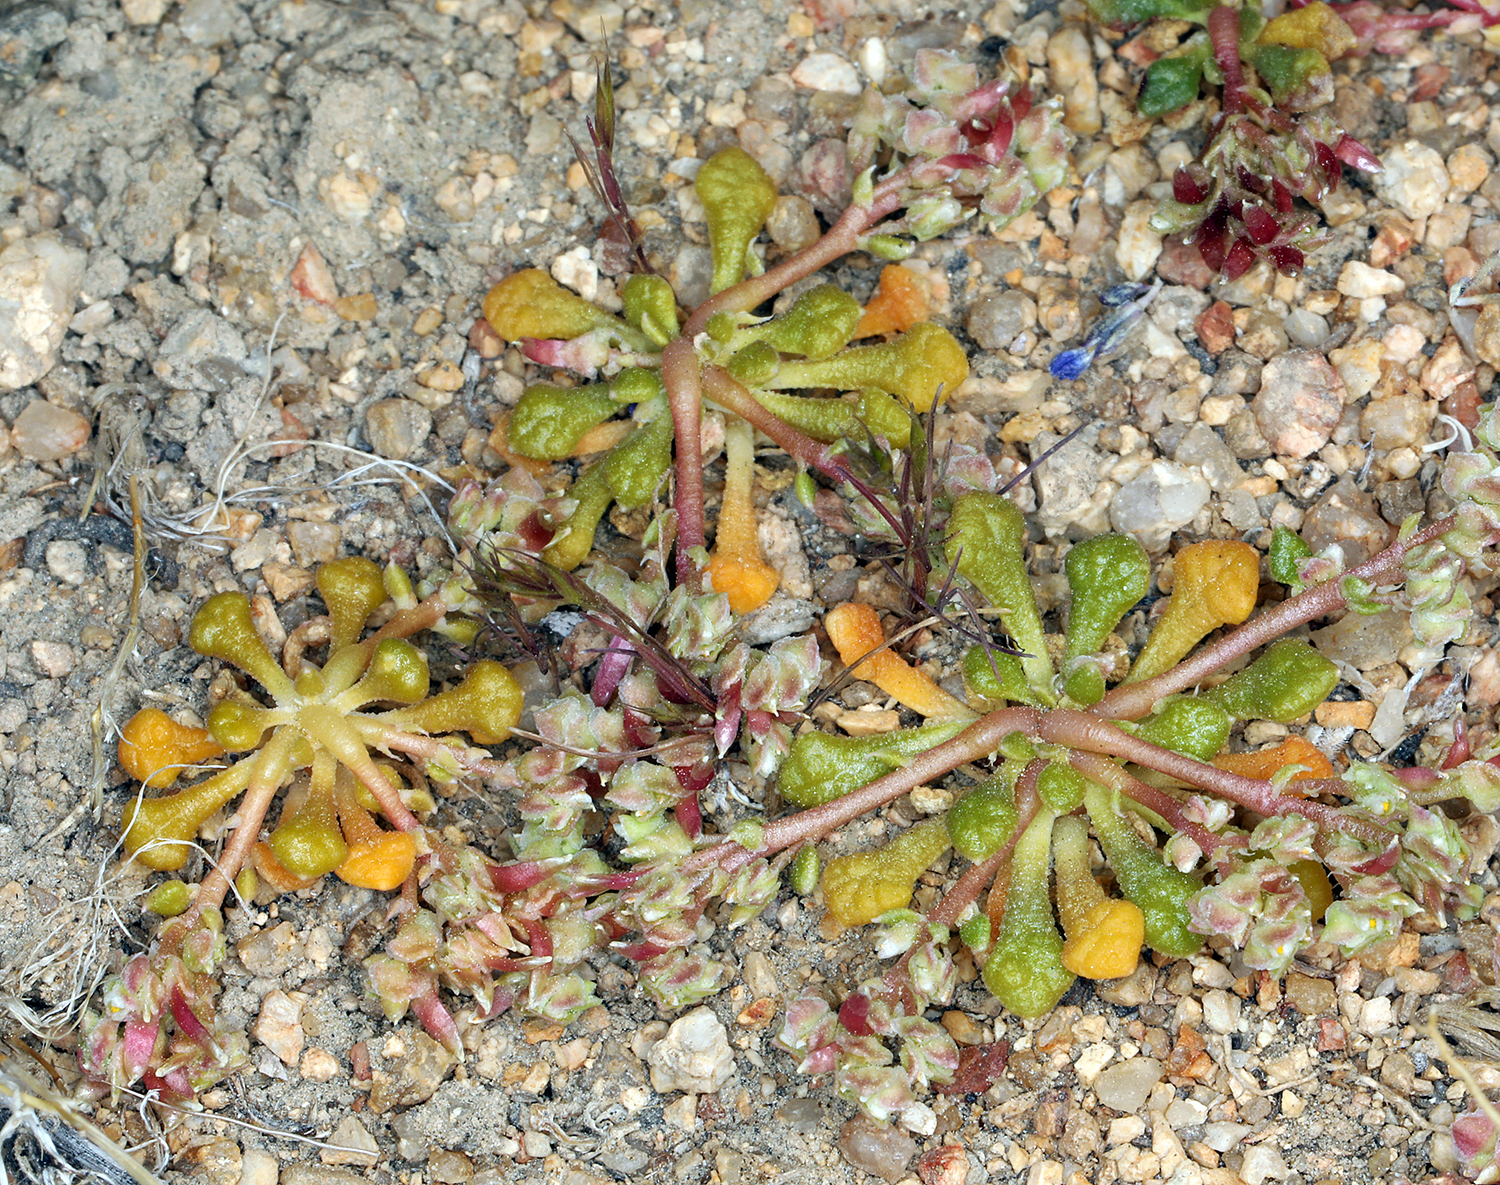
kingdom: Plantae
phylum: Tracheophyta
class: Magnoliopsida
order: Caryophyllales
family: Montiaceae
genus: Calyptridium
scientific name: Calyptridium monandrum
